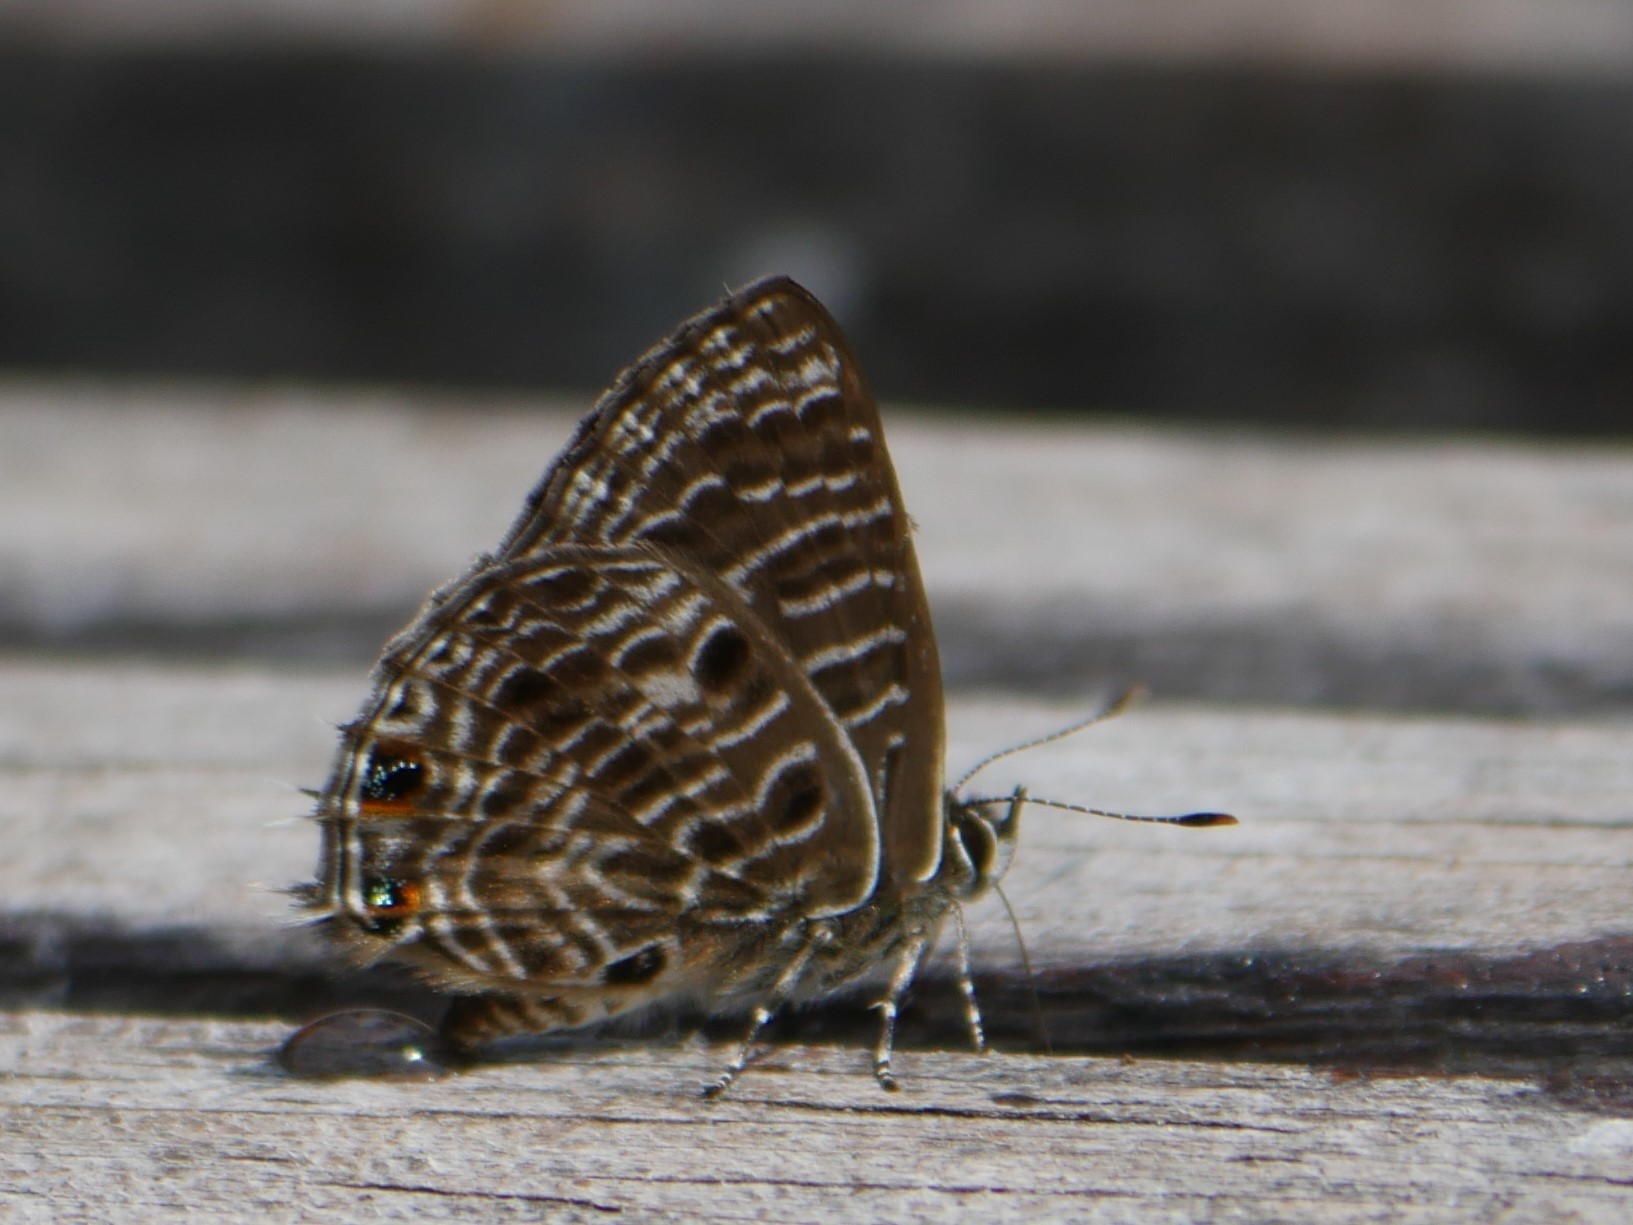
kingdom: Animalia
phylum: Arthropoda
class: Insecta
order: Lepidoptera
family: Lycaenidae
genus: Anthene
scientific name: Anthene larydas
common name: Forest hairtail
